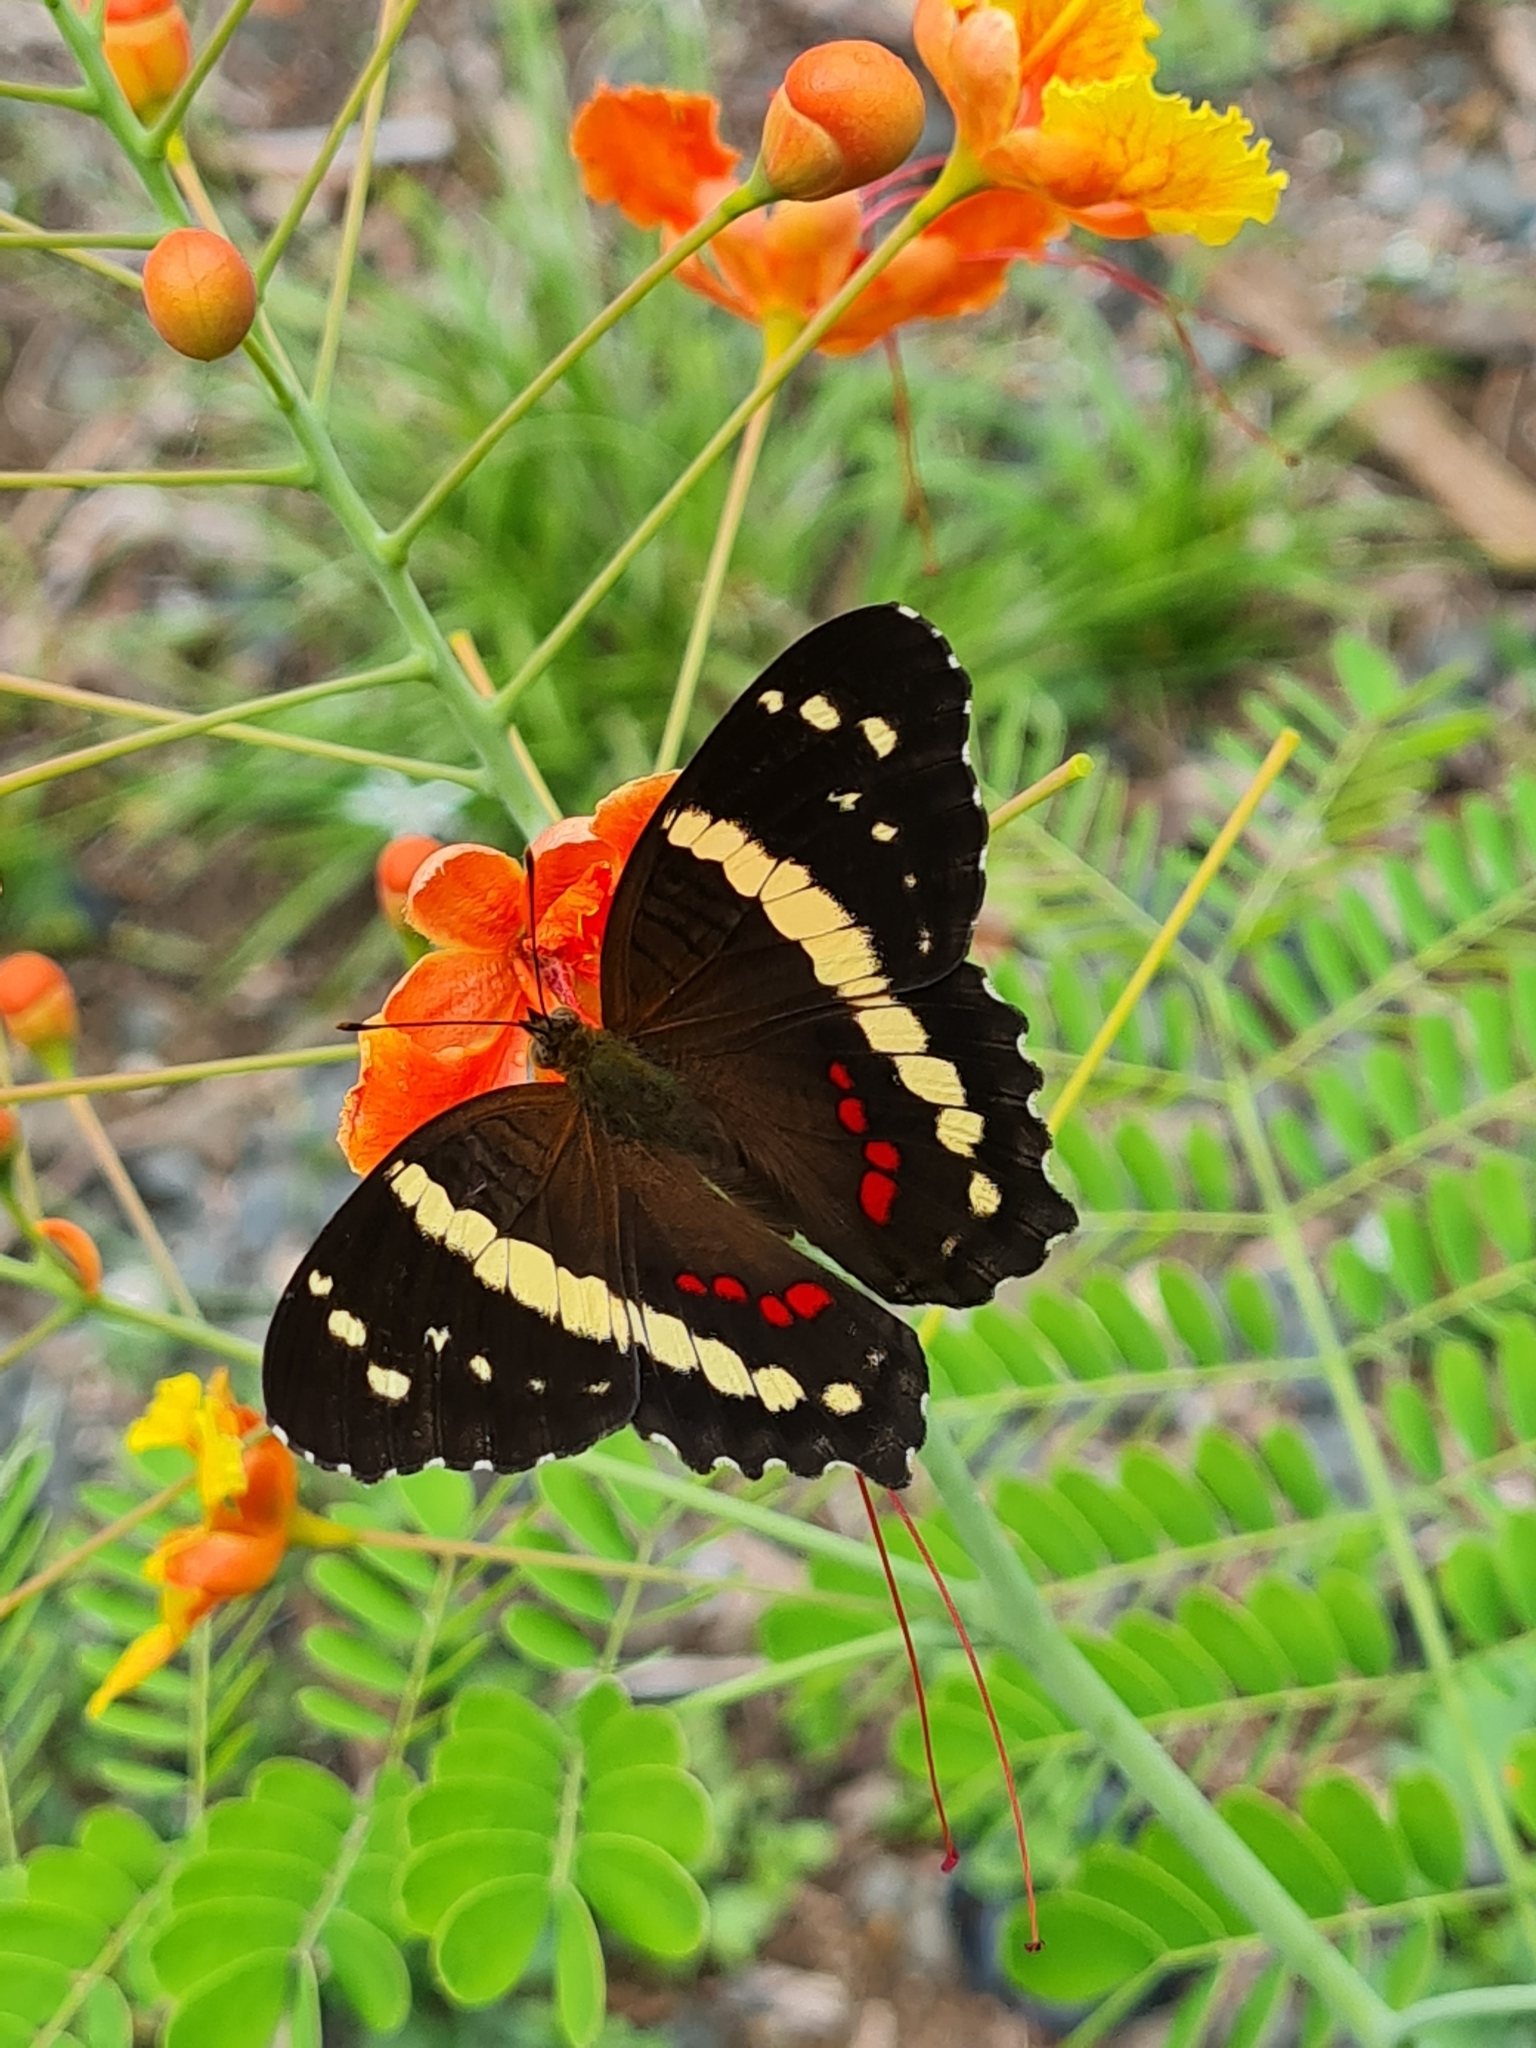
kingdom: Animalia
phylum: Arthropoda
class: Insecta
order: Lepidoptera
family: Nymphalidae
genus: Anartia
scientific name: Anartia fatima
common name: Banded peacock
